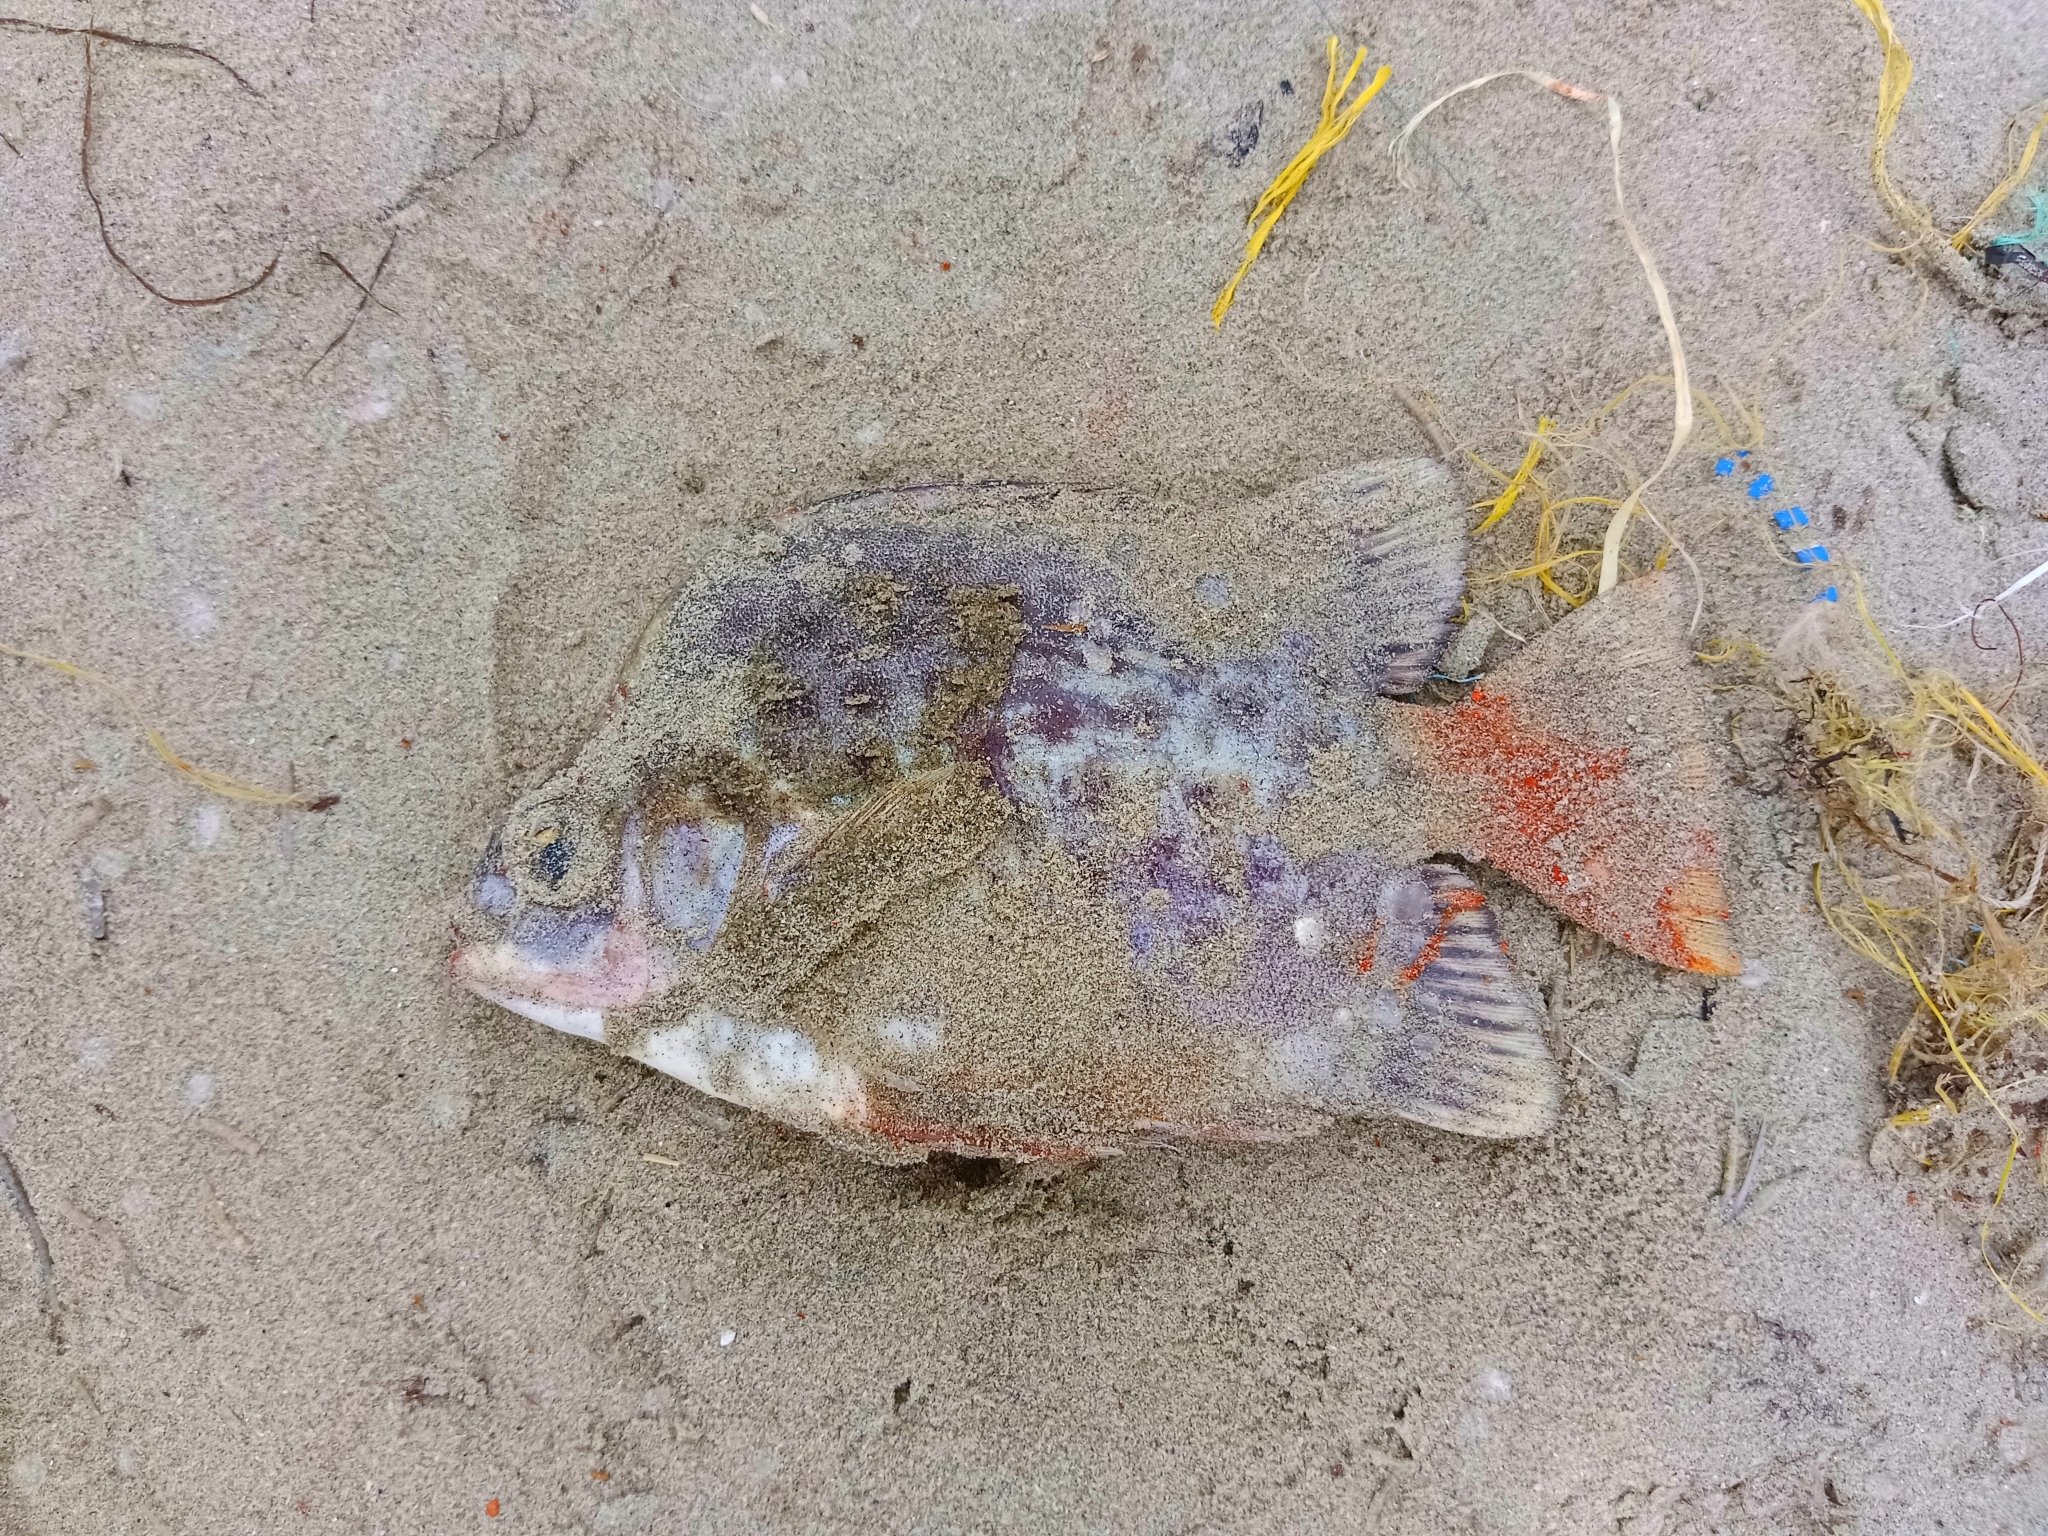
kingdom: Animalia
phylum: Chordata
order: Perciformes
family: Scatophagidae
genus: Scatophagus
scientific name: Scatophagus argus
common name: Spotted scat
